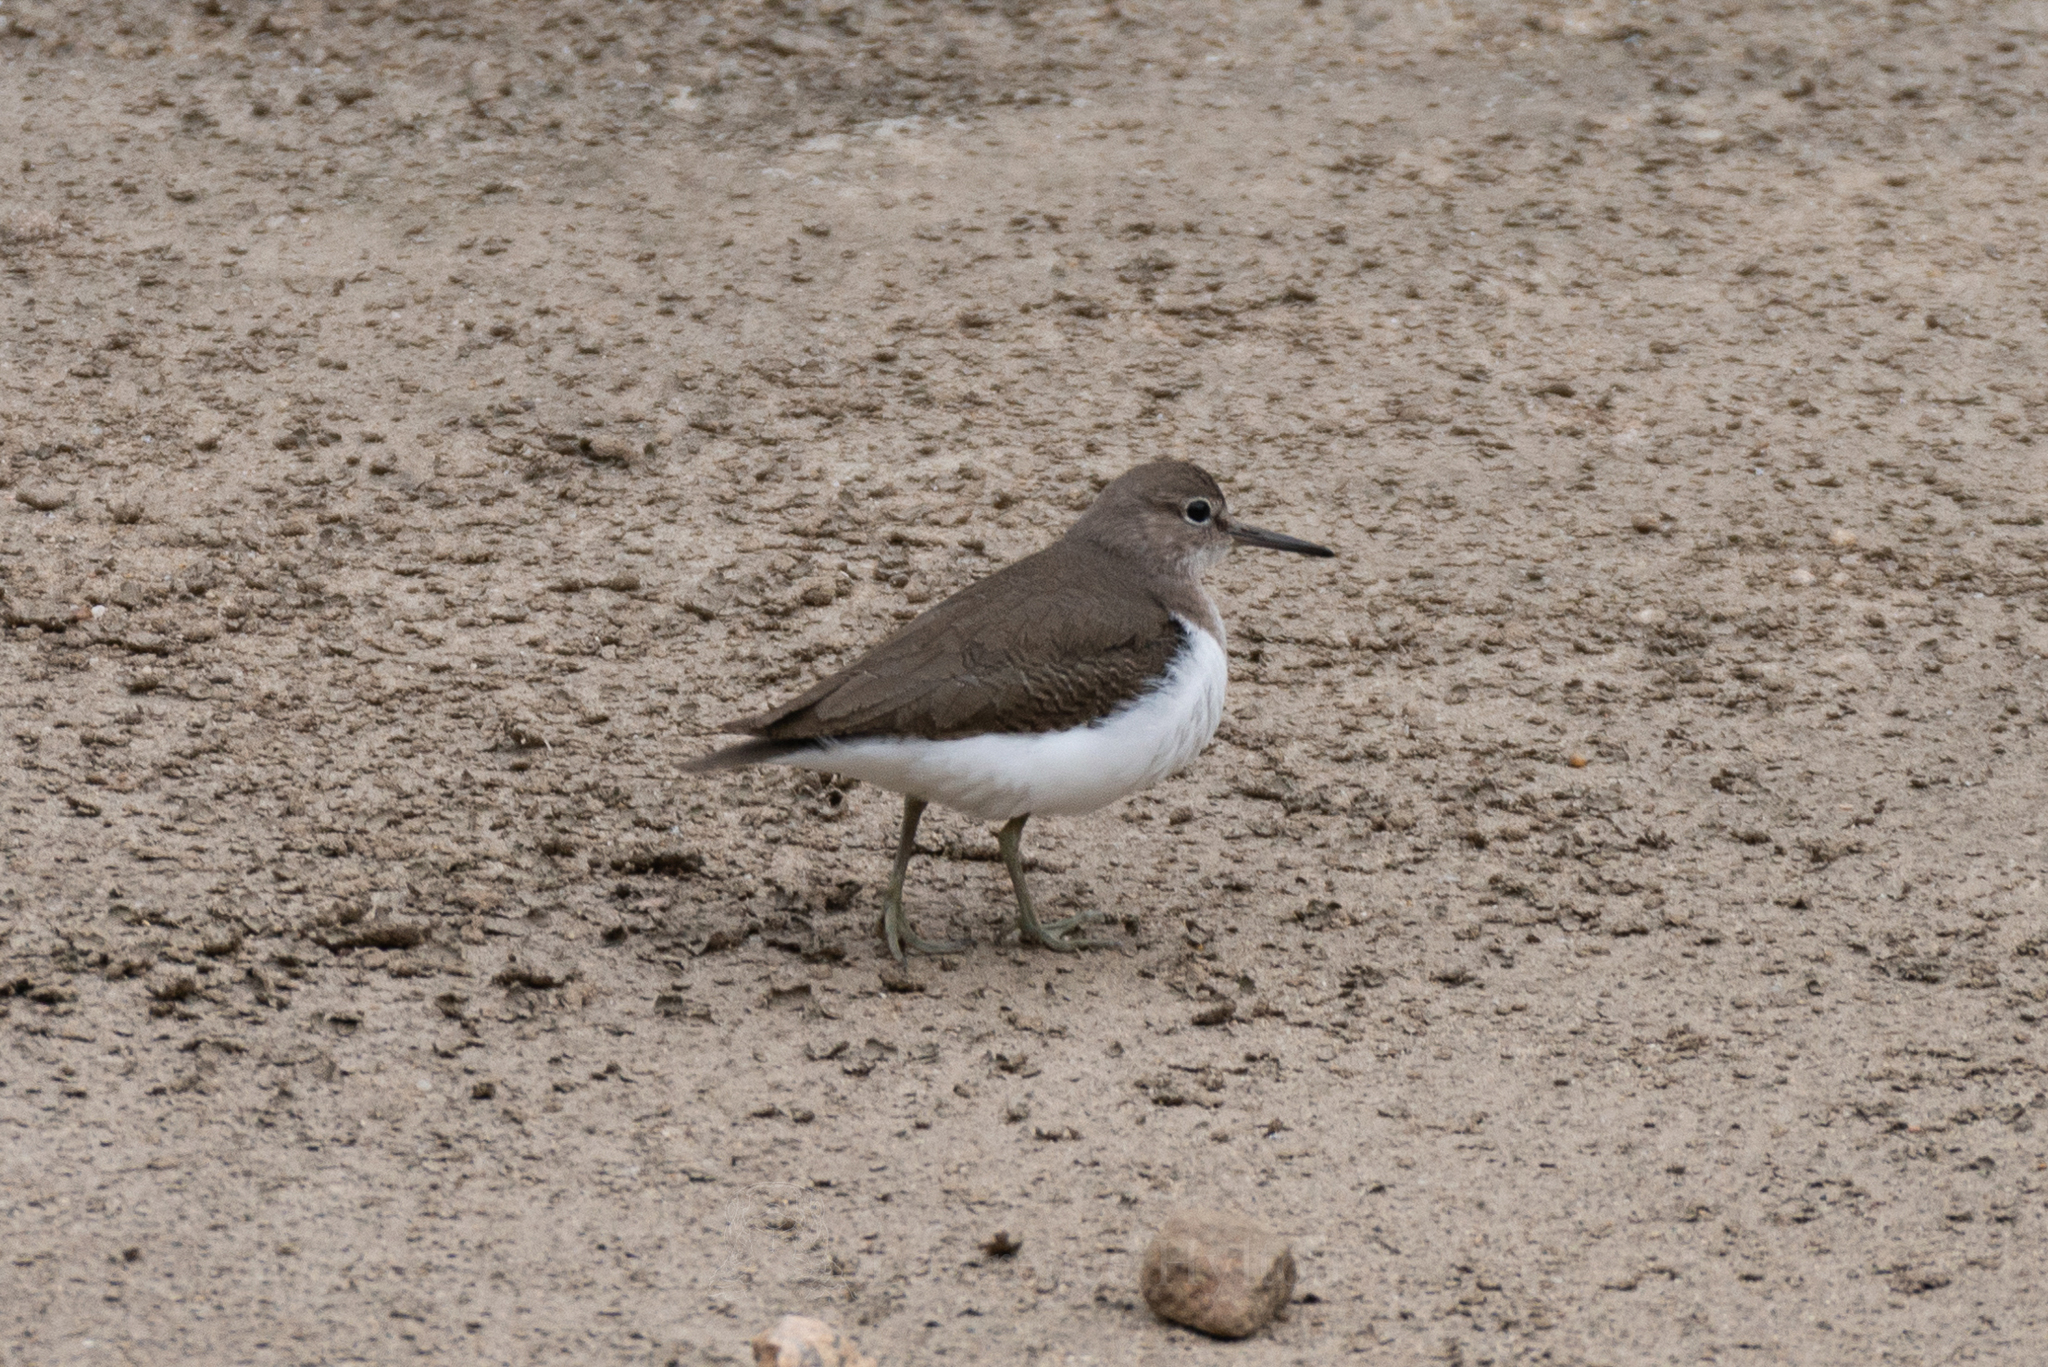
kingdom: Animalia
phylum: Chordata
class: Aves
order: Charadriiformes
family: Scolopacidae
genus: Actitis
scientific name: Actitis hypoleucos
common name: Common sandpiper
